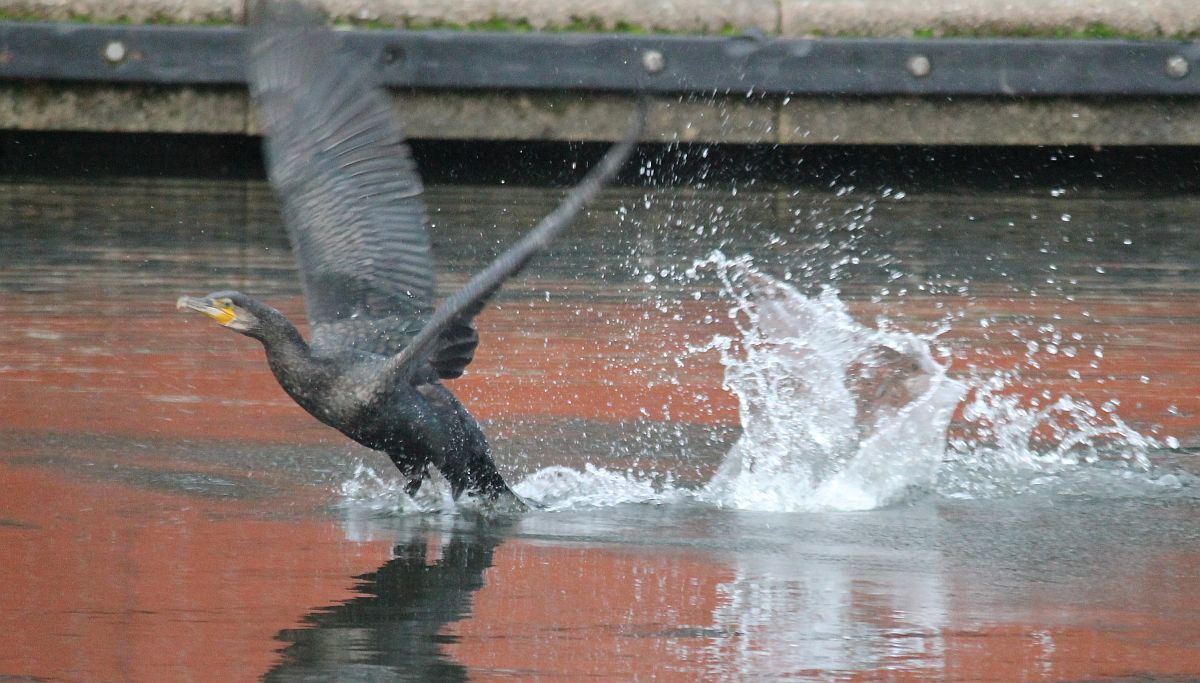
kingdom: Animalia
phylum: Chordata
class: Aves
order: Suliformes
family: Phalacrocoracidae
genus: Phalacrocorax
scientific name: Phalacrocorax carbo
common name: Great cormorant
